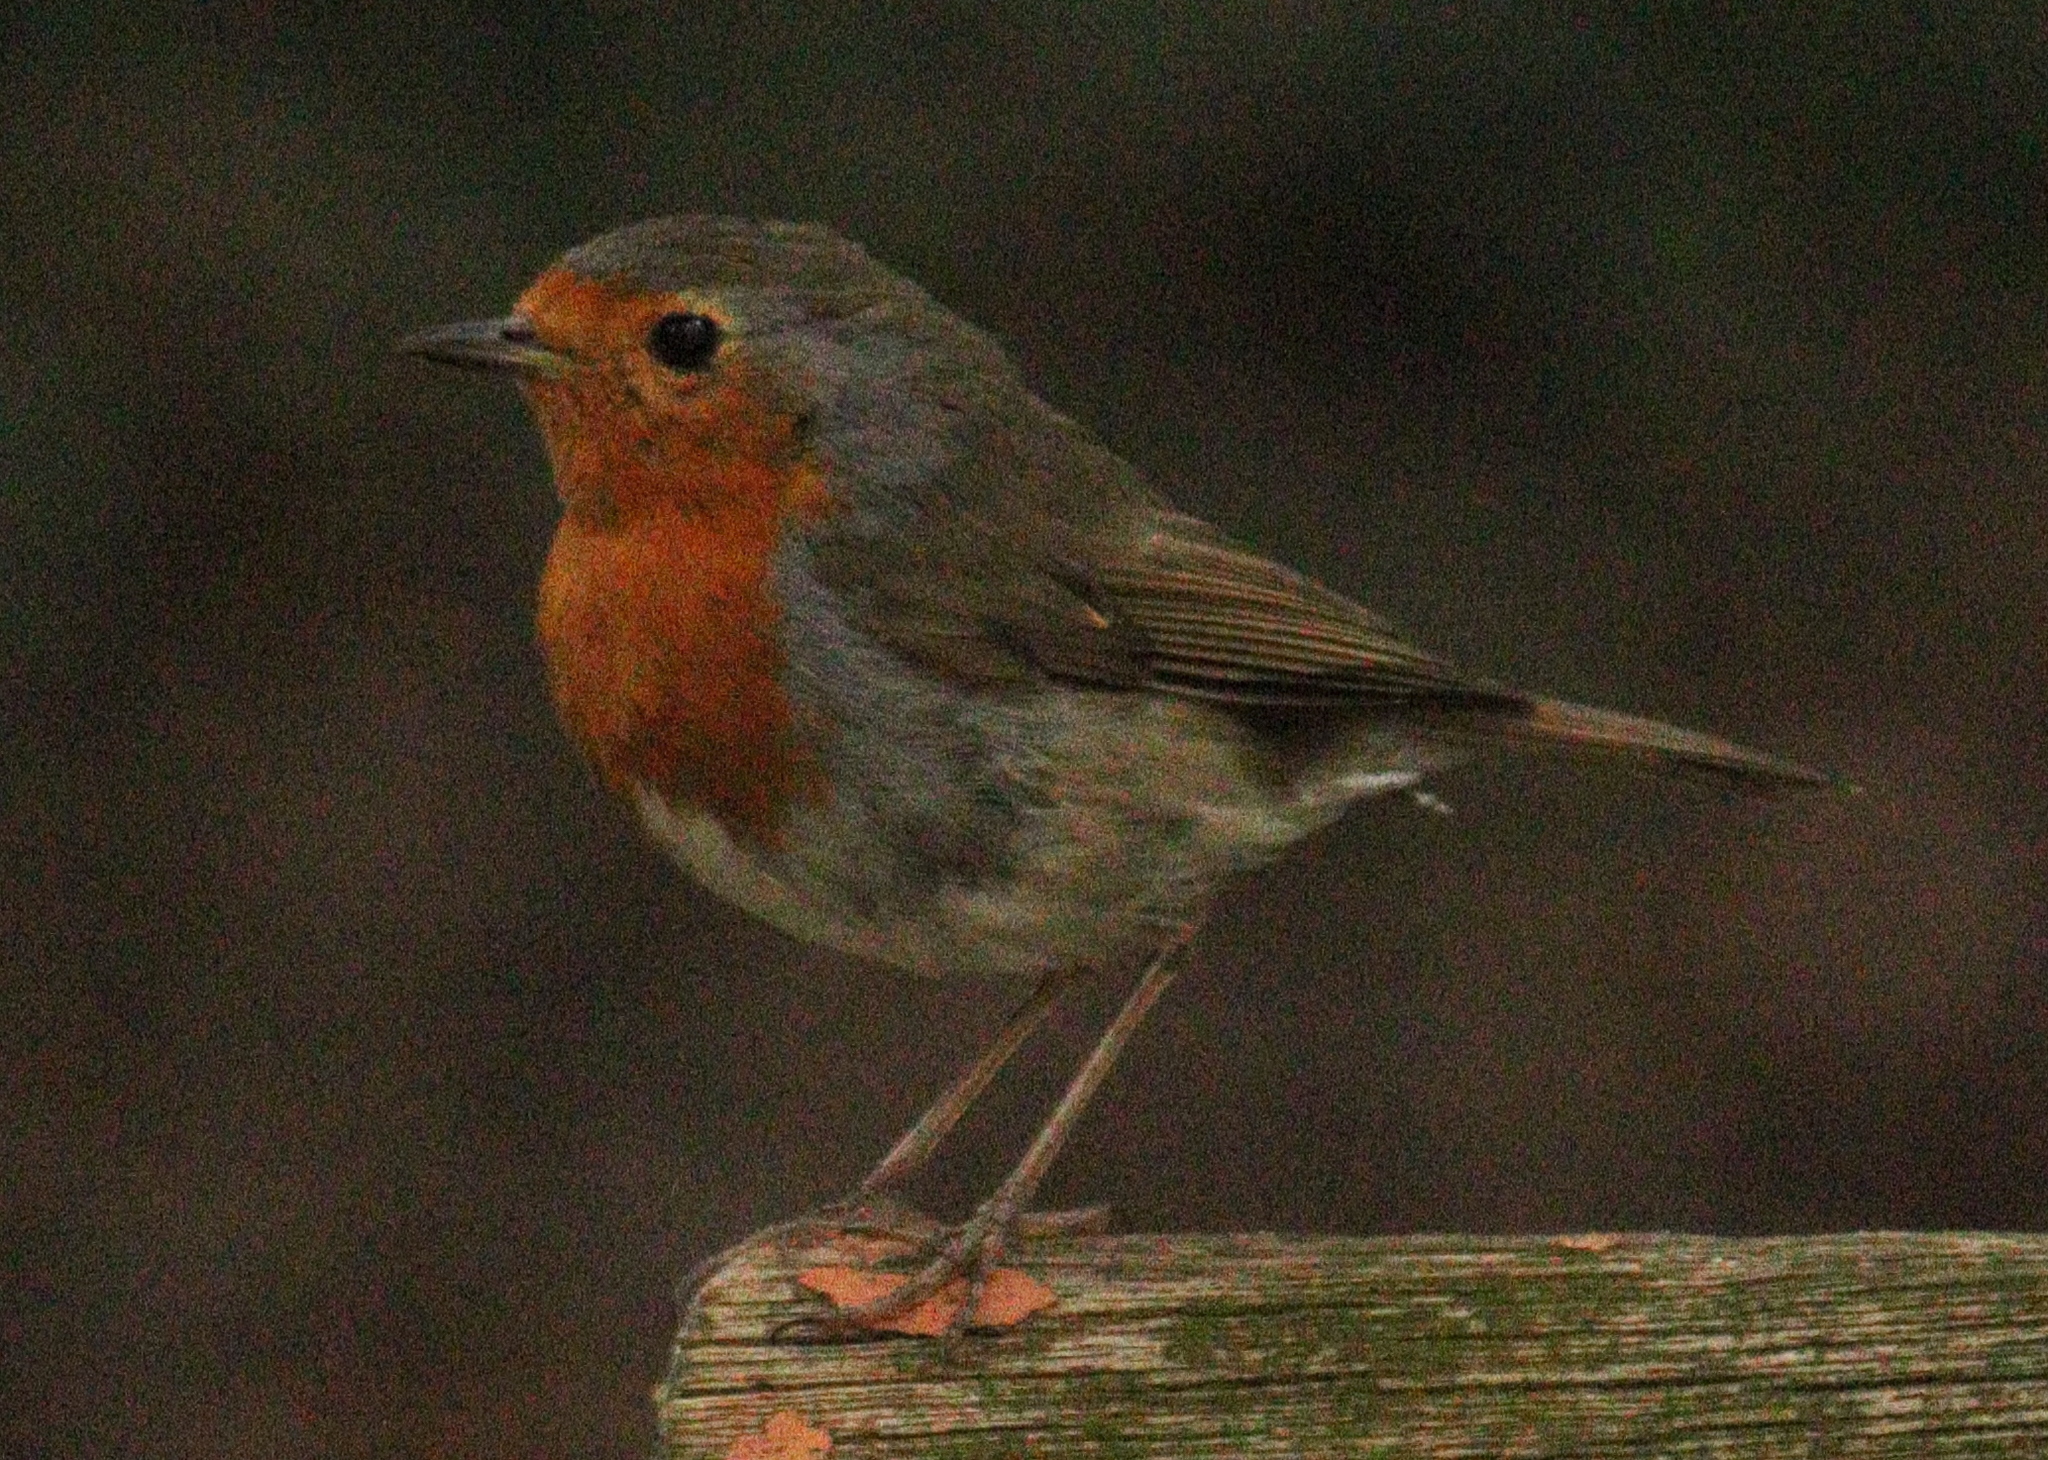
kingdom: Animalia
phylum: Chordata
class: Aves
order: Passeriformes
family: Muscicapidae
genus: Erithacus
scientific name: Erithacus rubecula
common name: European robin
